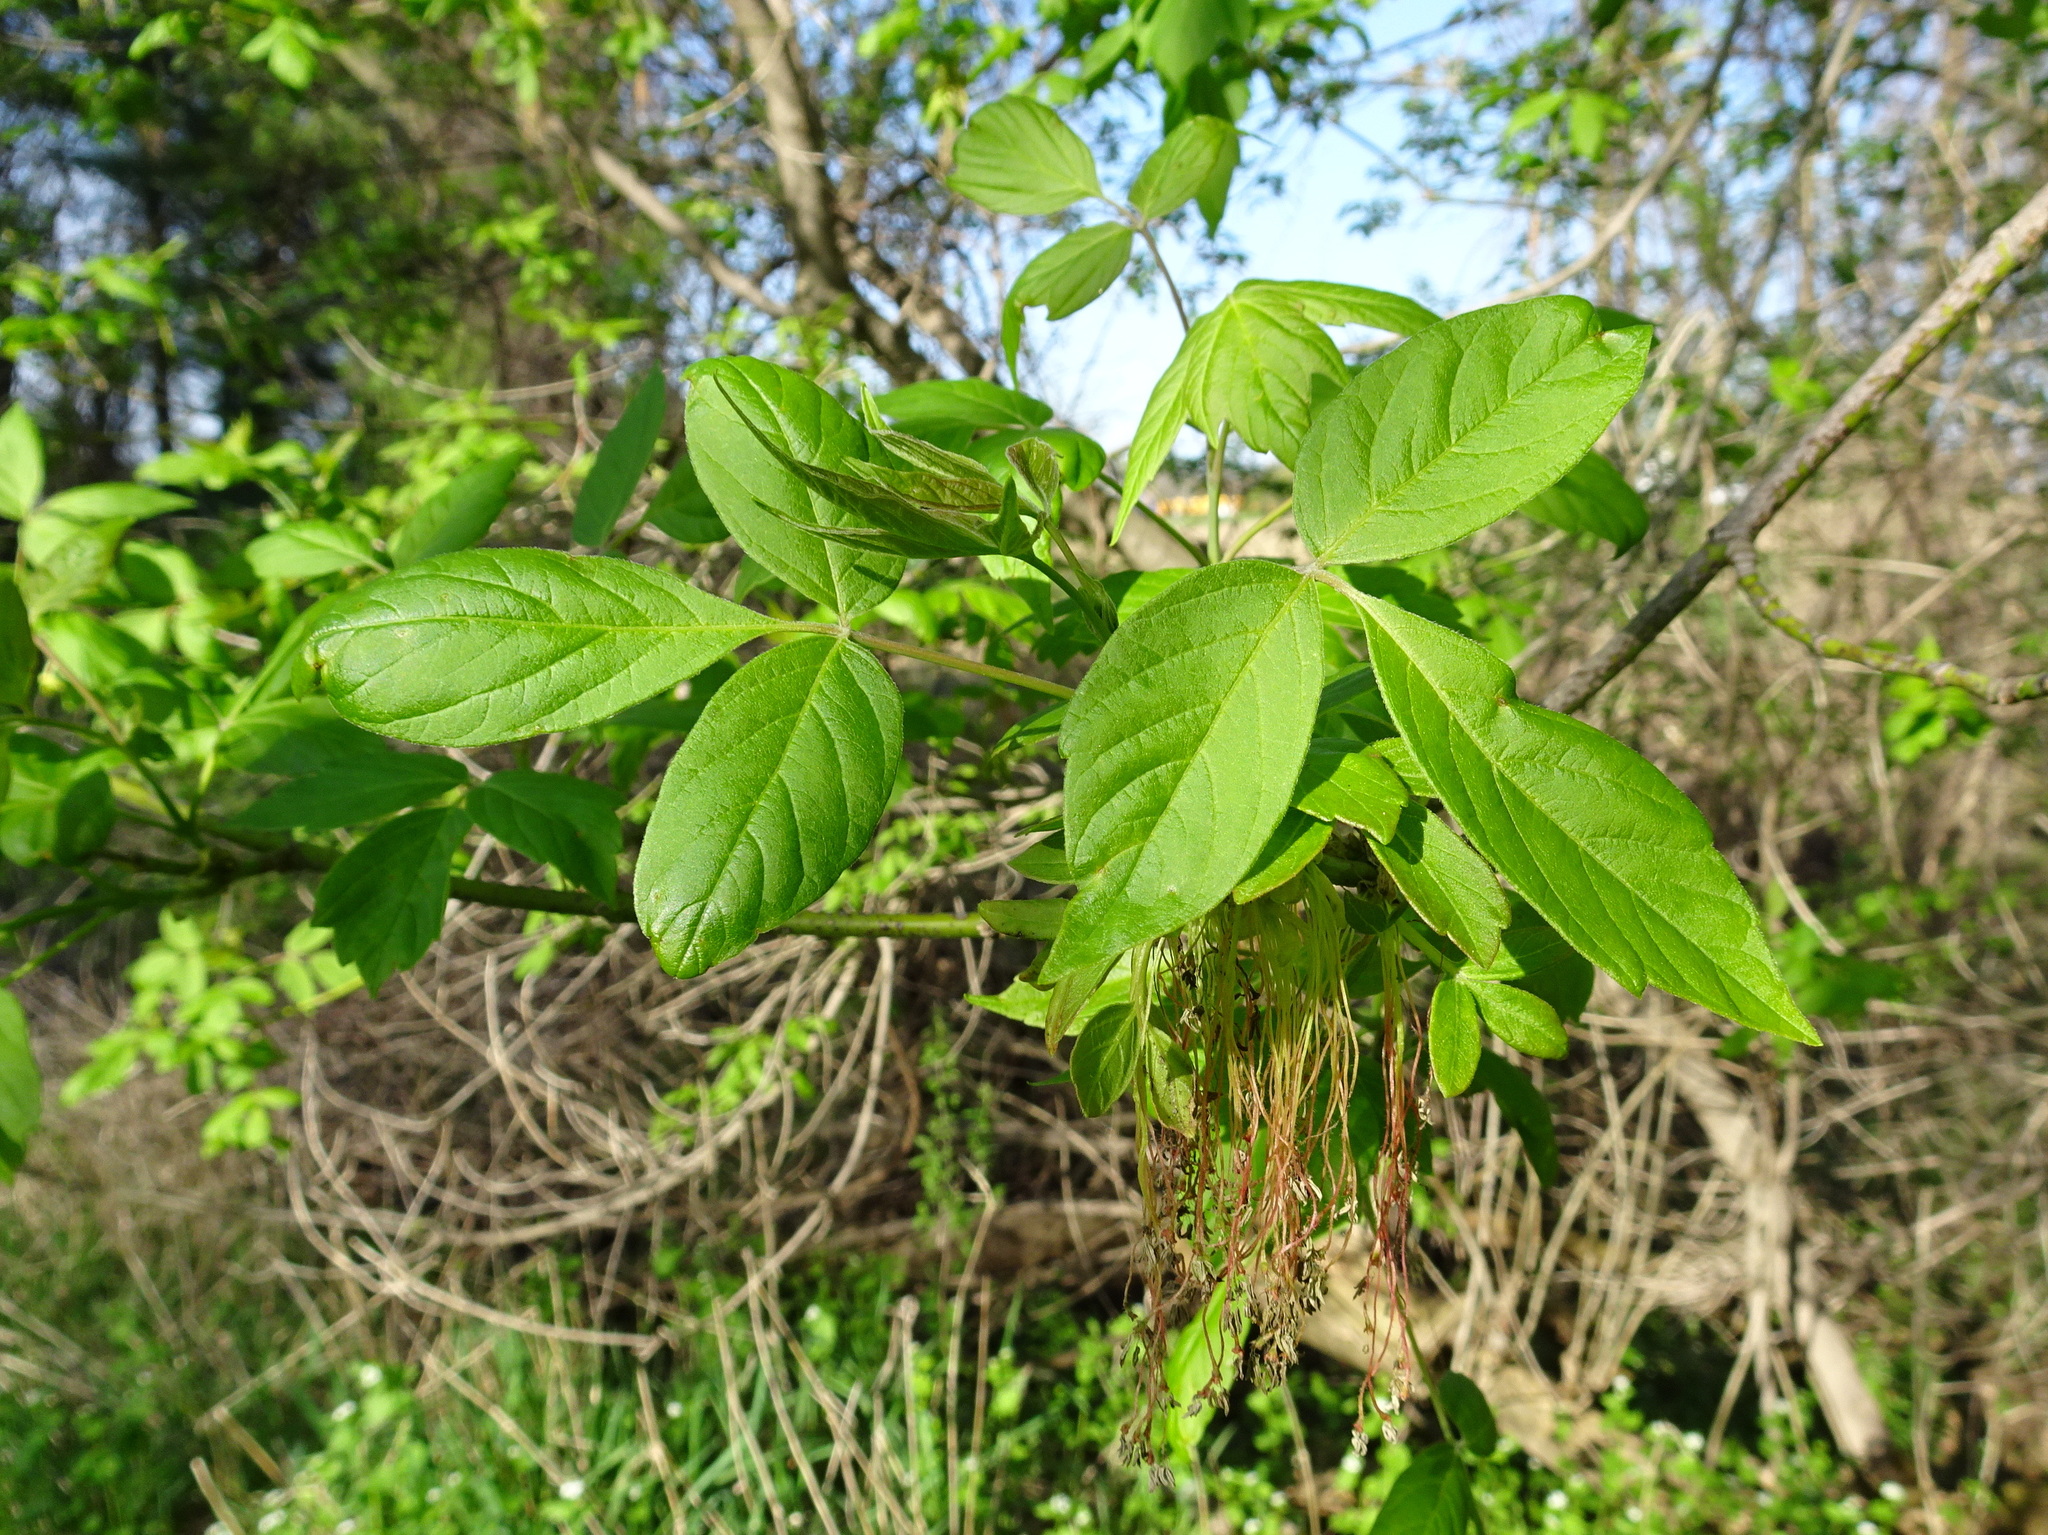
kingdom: Plantae
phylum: Tracheophyta
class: Magnoliopsida
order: Sapindales
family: Sapindaceae
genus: Acer
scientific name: Acer negundo
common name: Ashleaf maple
